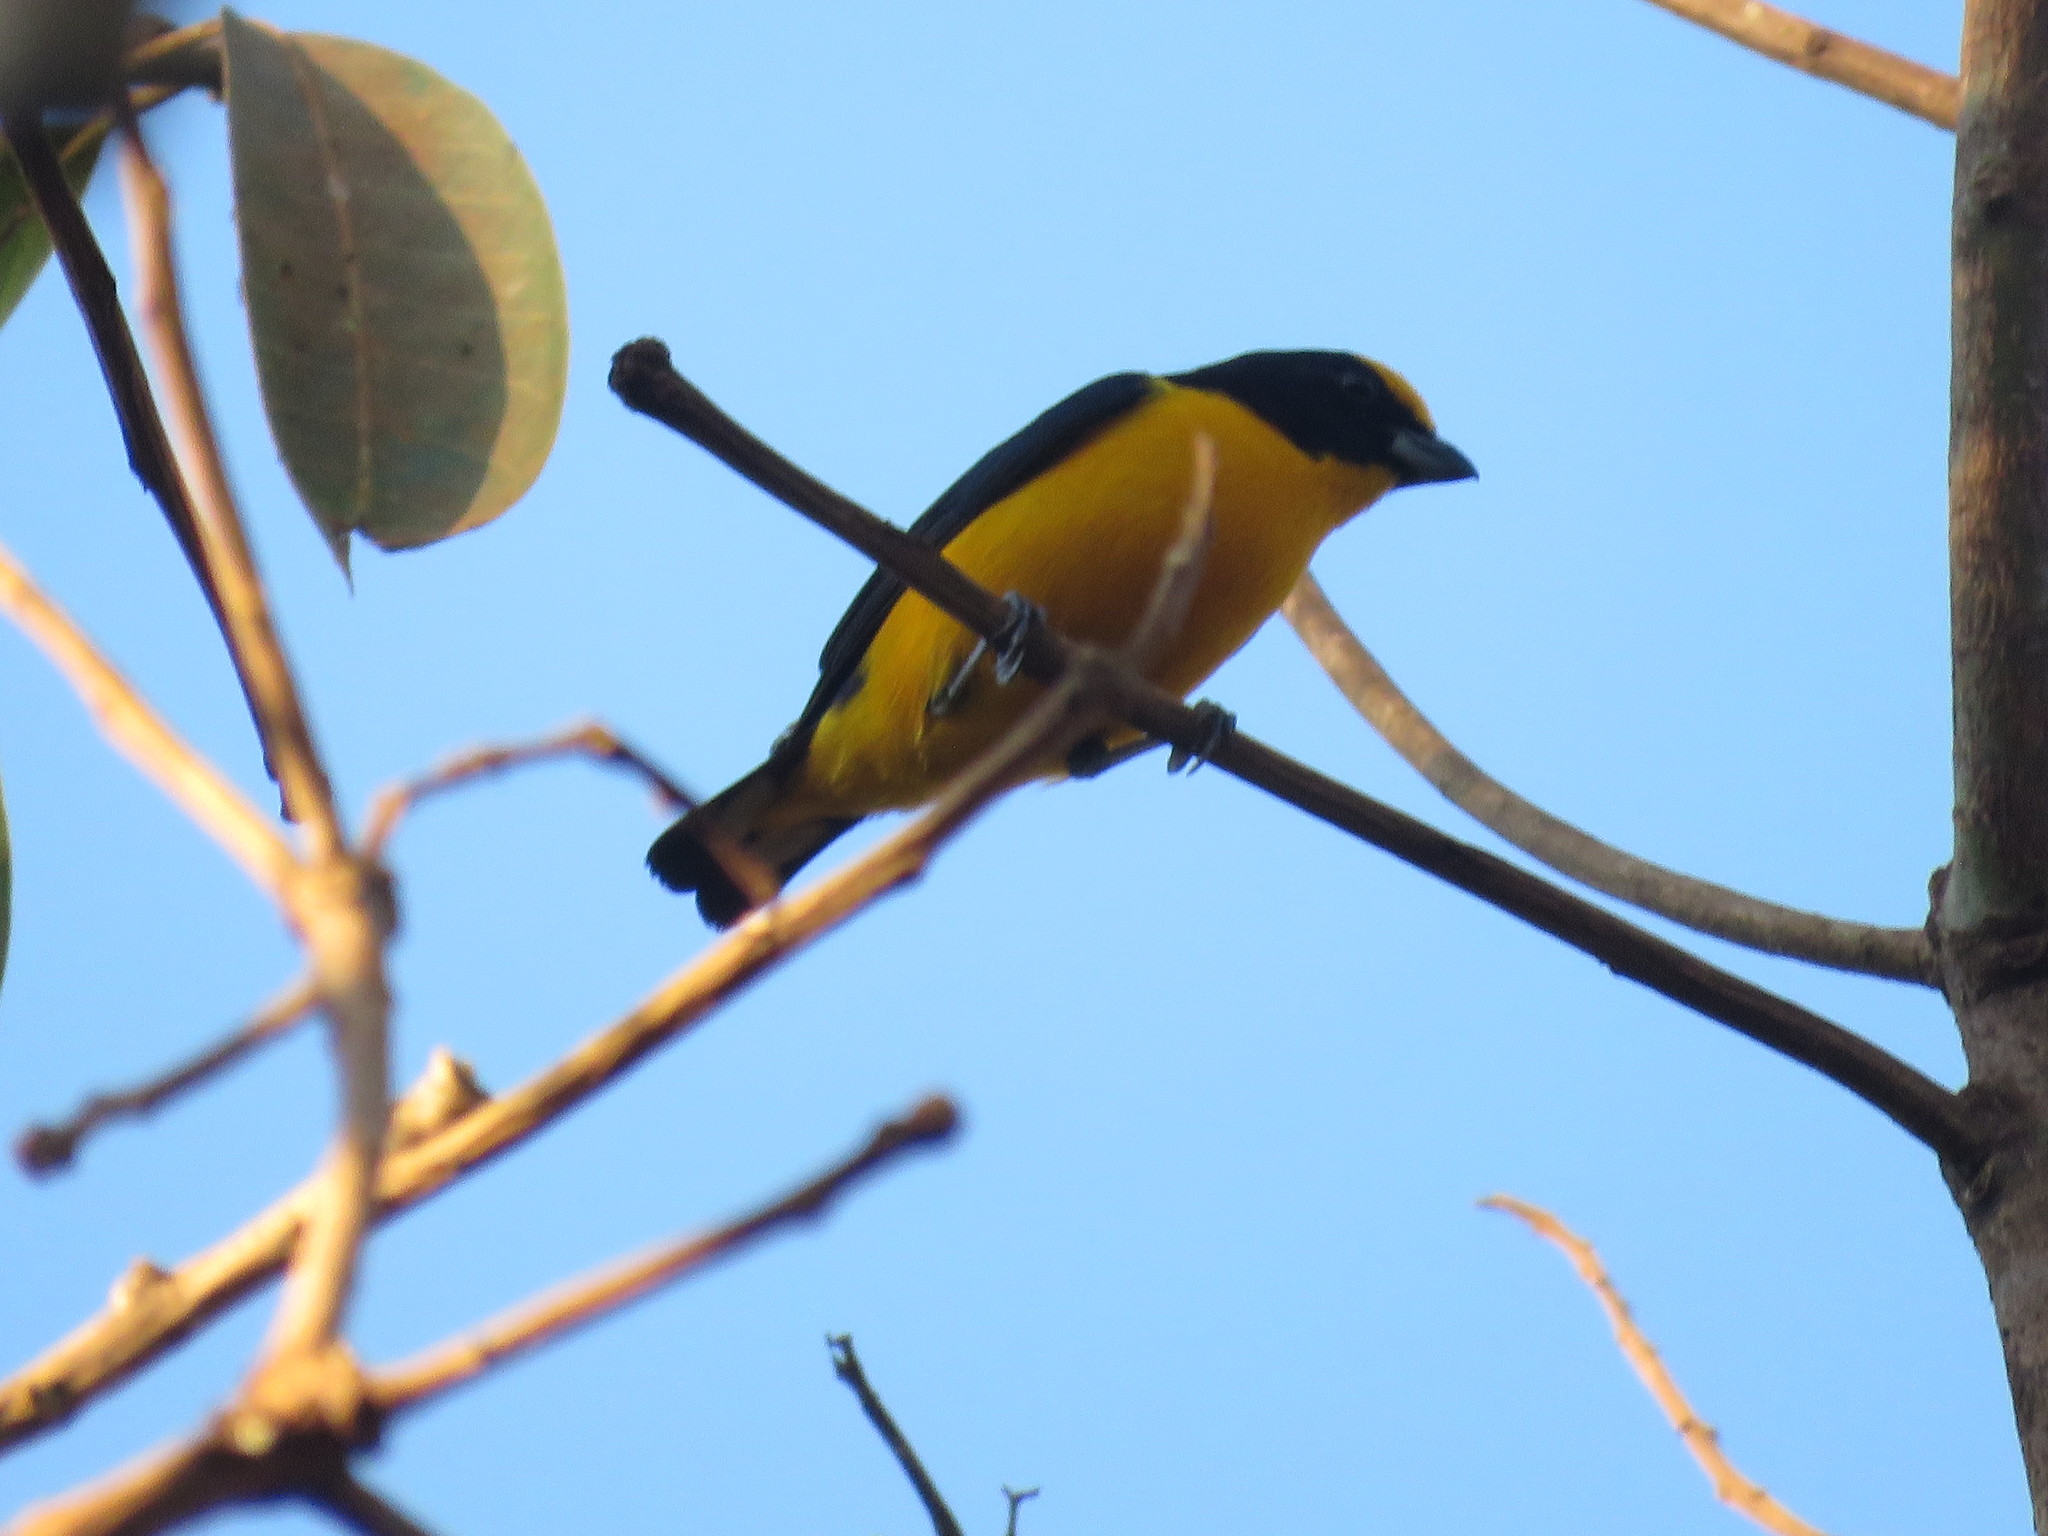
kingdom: Animalia
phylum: Chordata
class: Aves
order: Passeriformes
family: Fringillidae
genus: Euphonia
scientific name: Euphonia laniirostris
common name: Thick-billed euphonia
